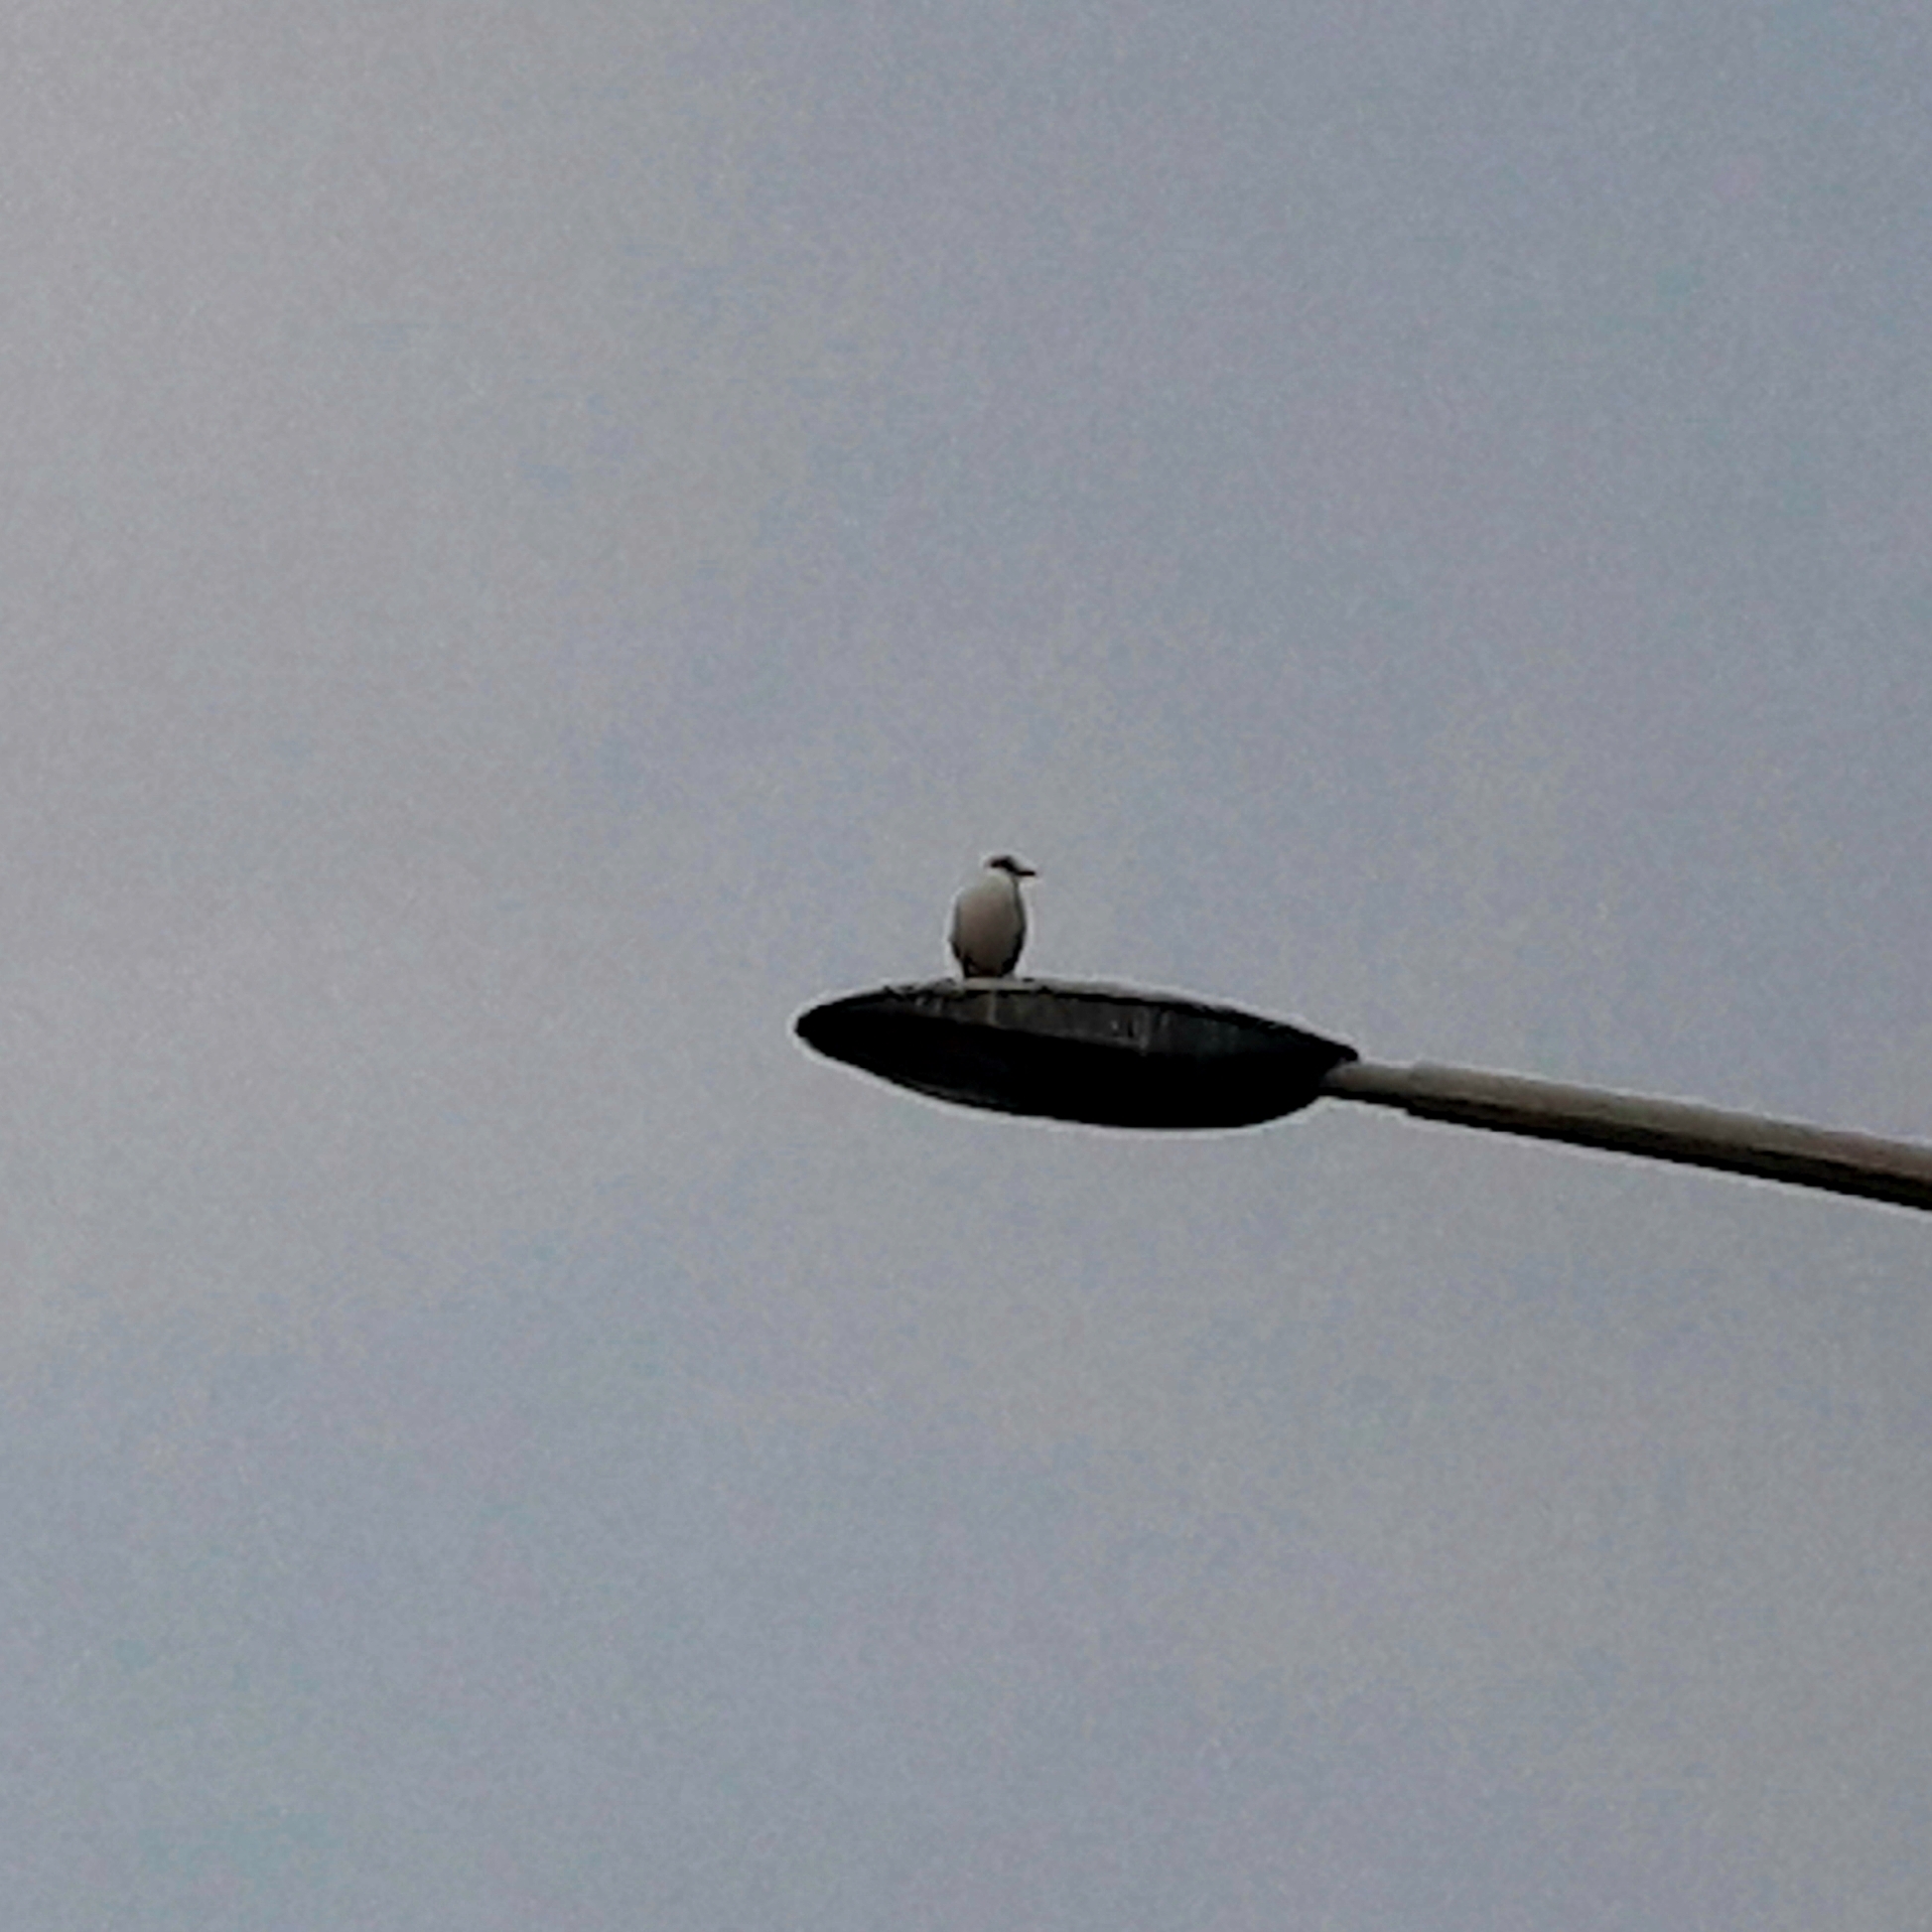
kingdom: Animalia
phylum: Chordata
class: Aves
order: Charadriiformes
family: Laridae
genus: Chroicocephalus
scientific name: Chroicocephalus ridibundus
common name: Black-headed gull
